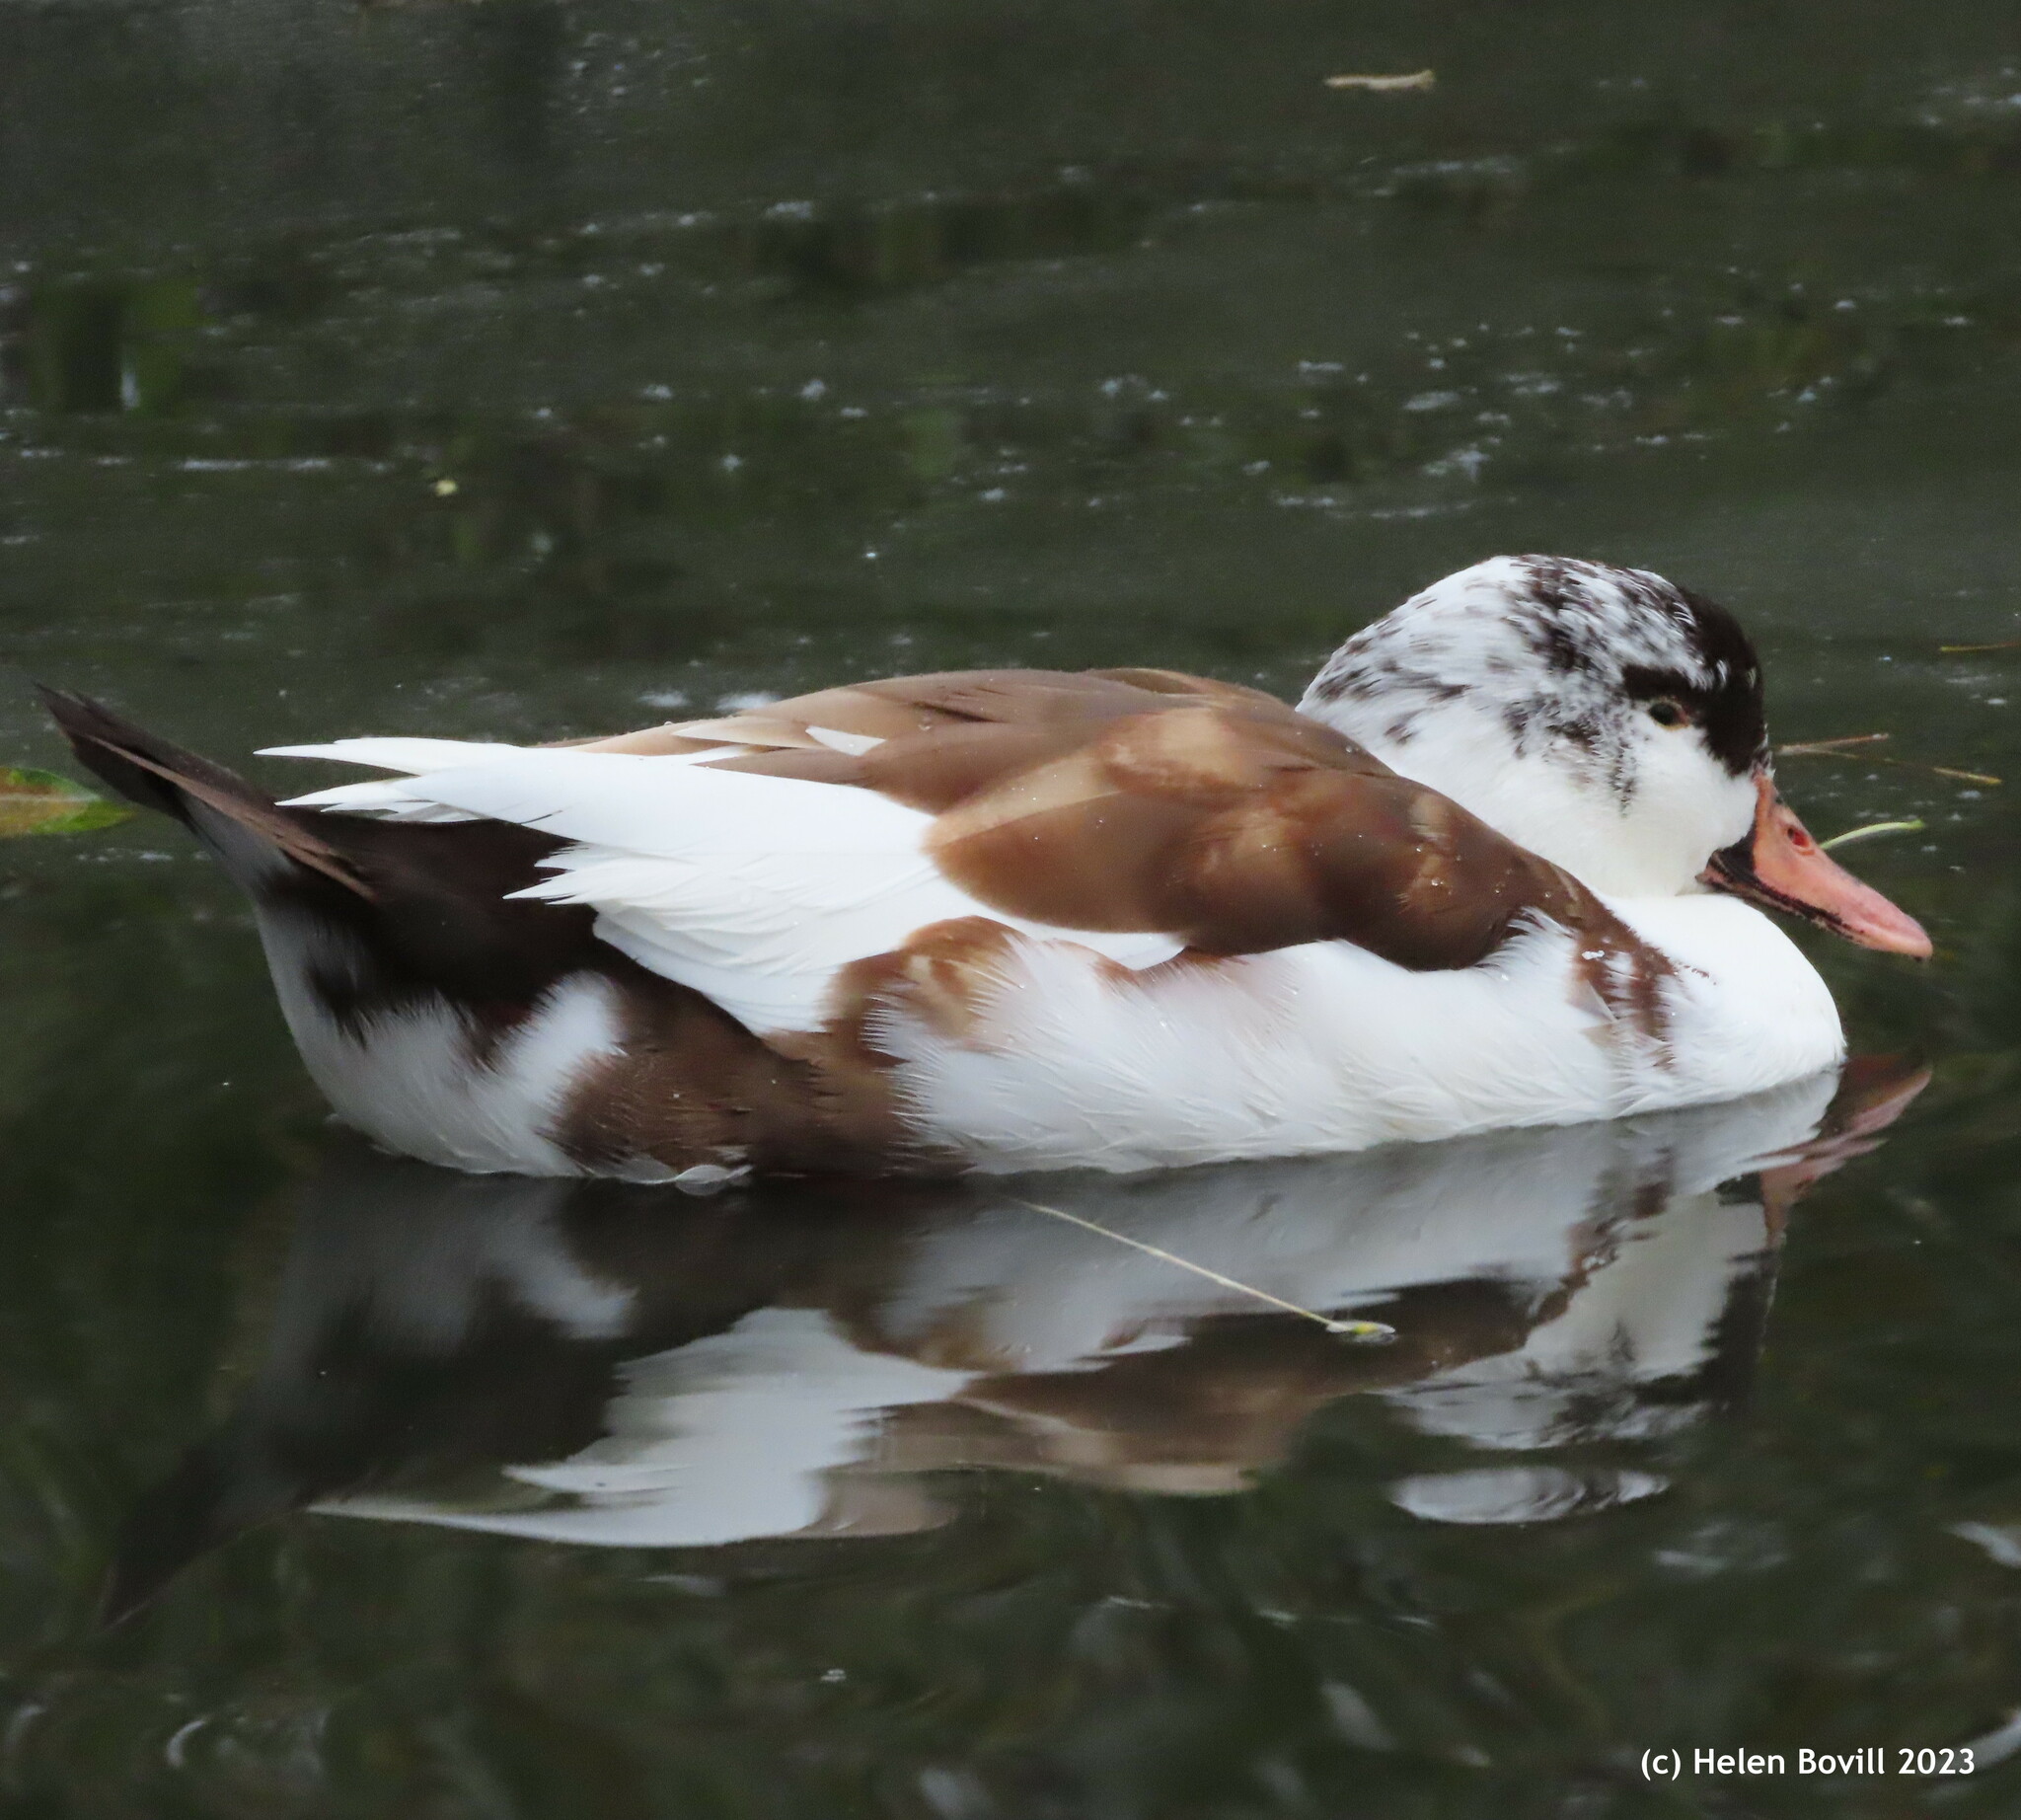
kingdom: Animalia
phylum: Chordata
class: Aves
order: Anseriformes
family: Anatidae
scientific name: Anatidae
